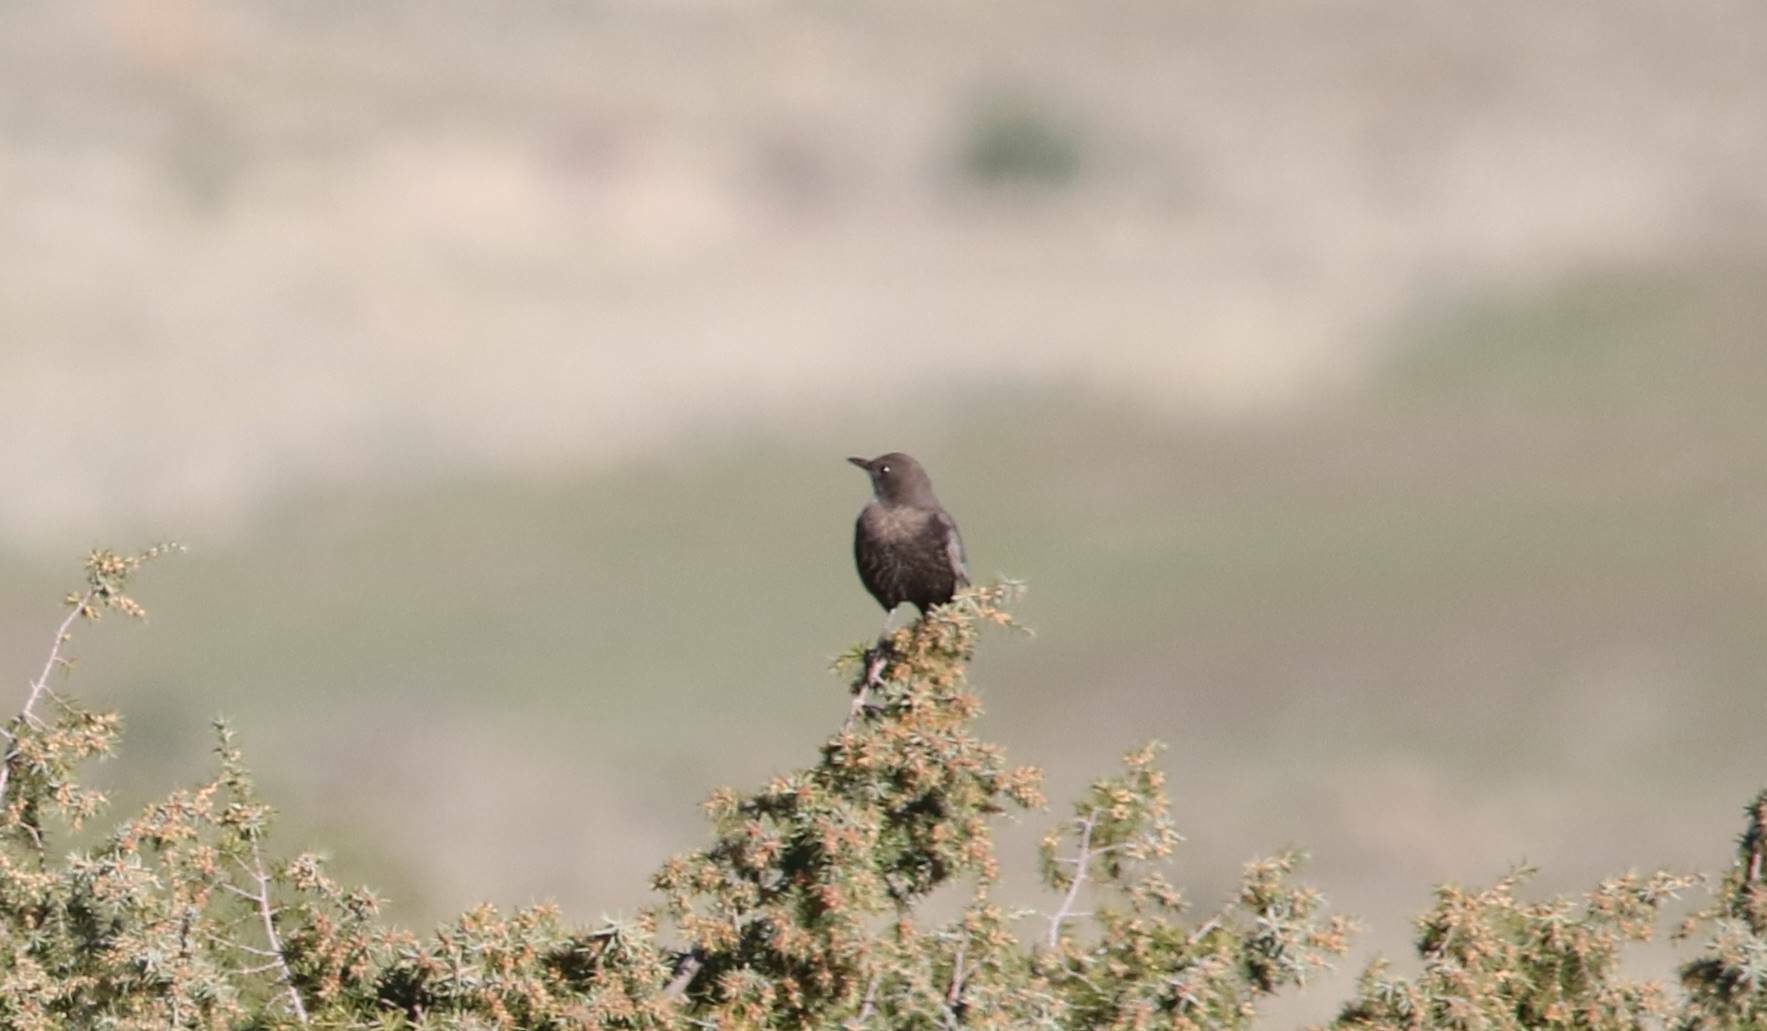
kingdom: Animalia
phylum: Chordata
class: Aves
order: Passeriformes
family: Turdidae
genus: Turdus
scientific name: Turdus torquatus
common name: Ring ouzel
